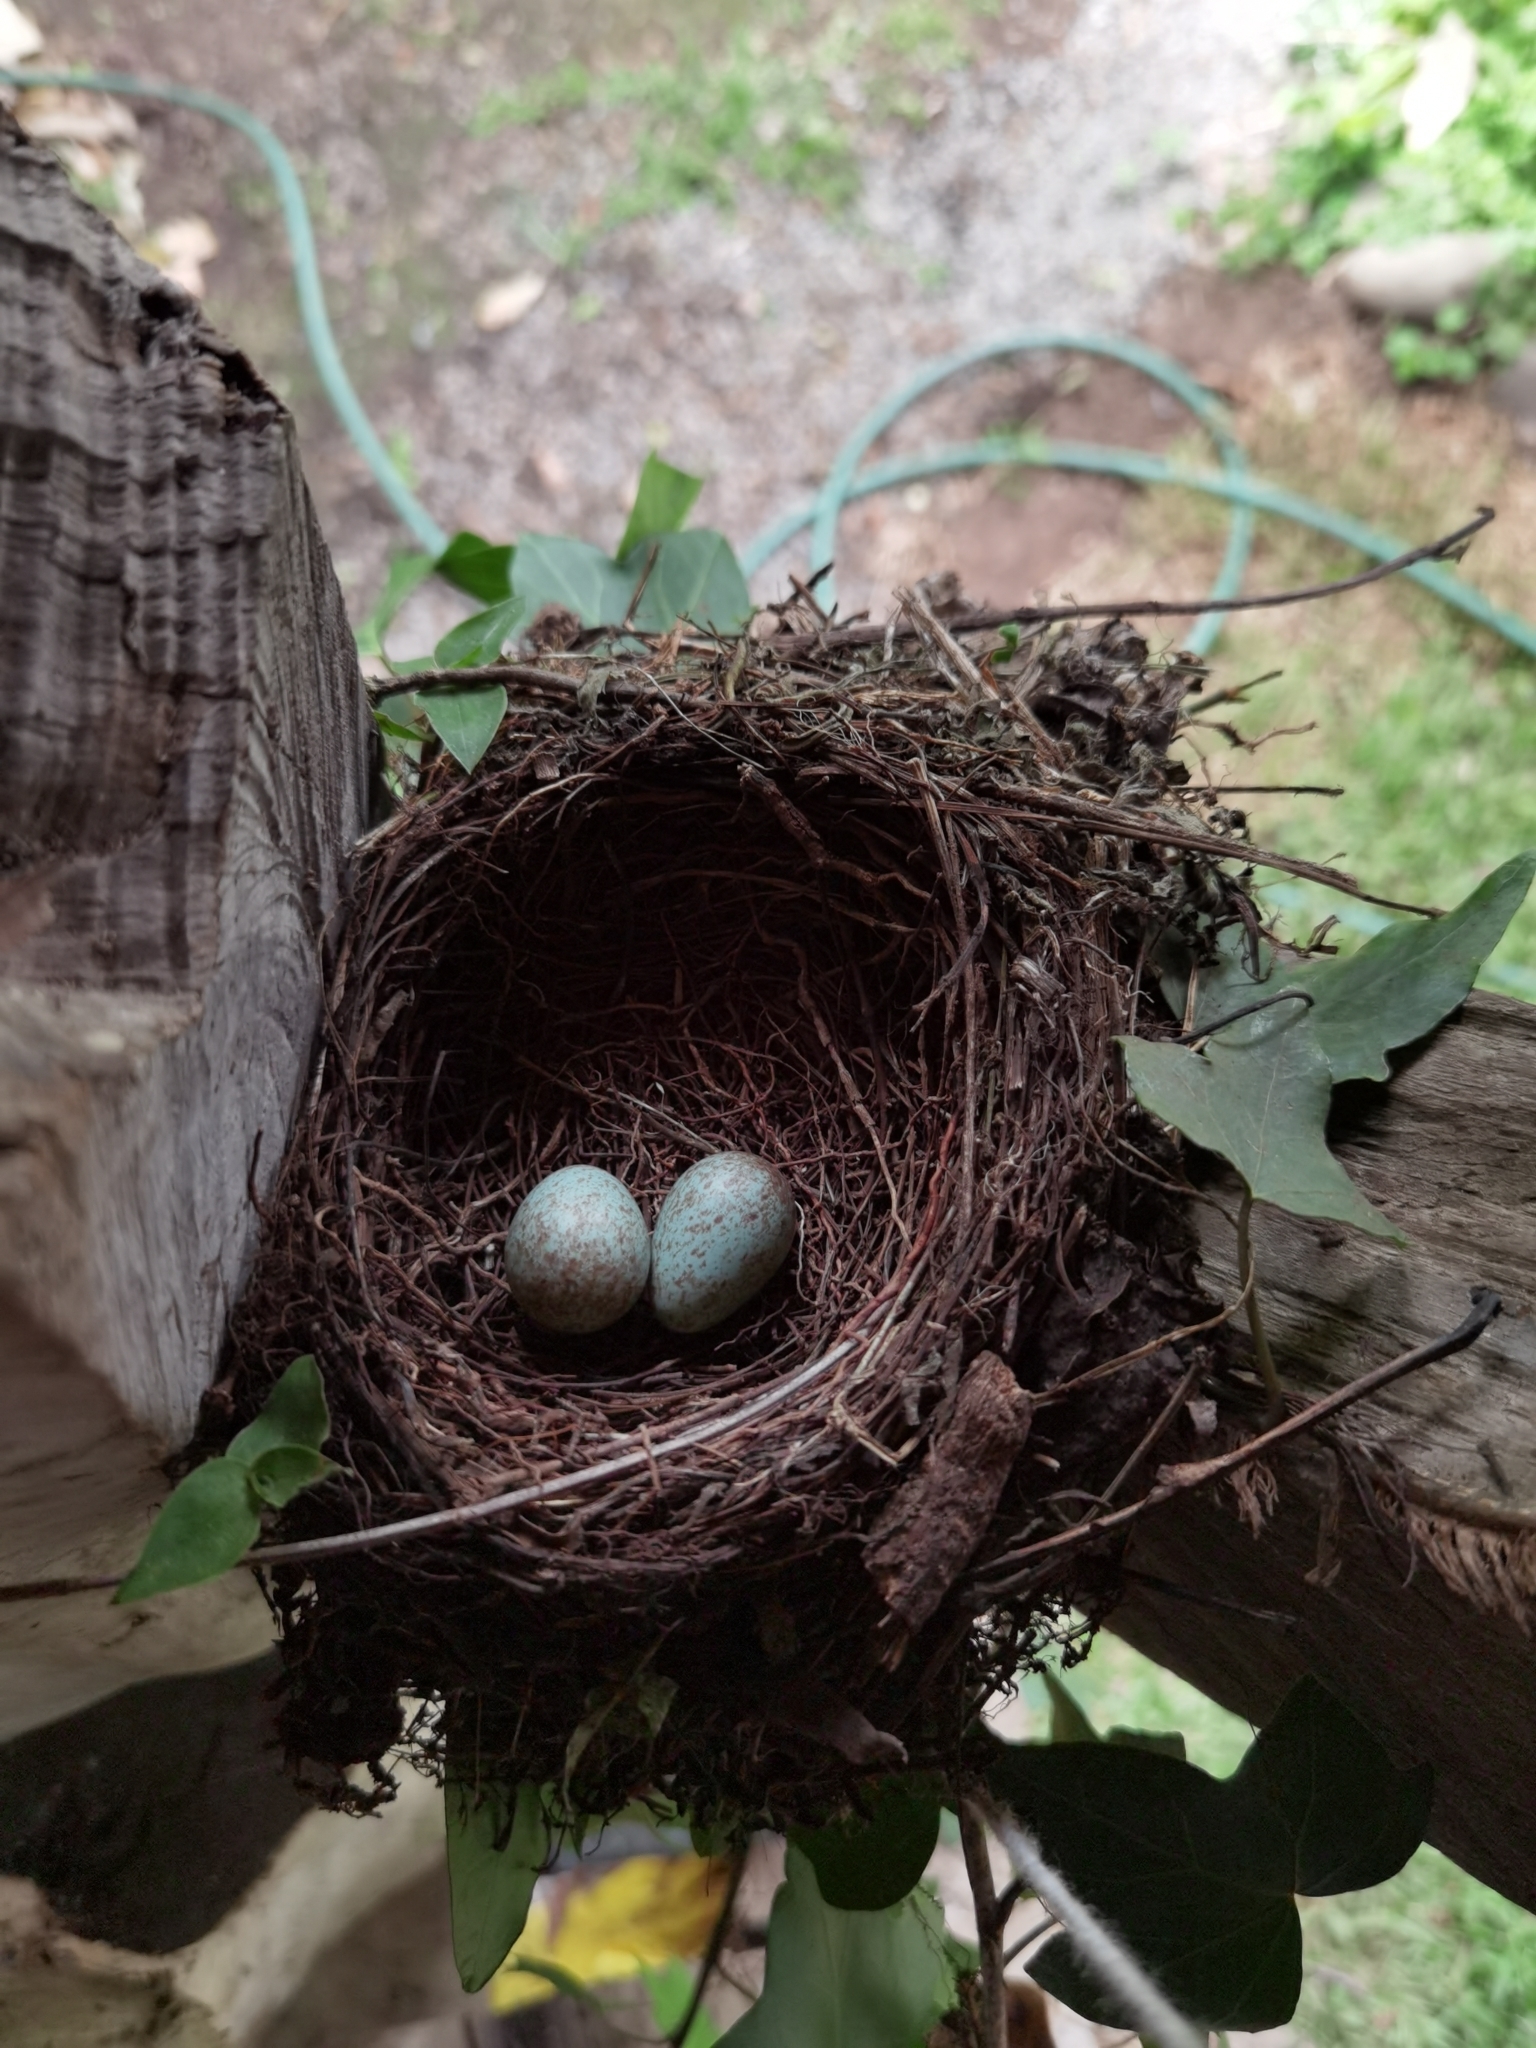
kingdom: Animalia
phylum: Chordata
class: Aves
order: Passeriformes
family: Turdidae
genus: Turdus
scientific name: Turdus grayi
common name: Clay-colored thrush
